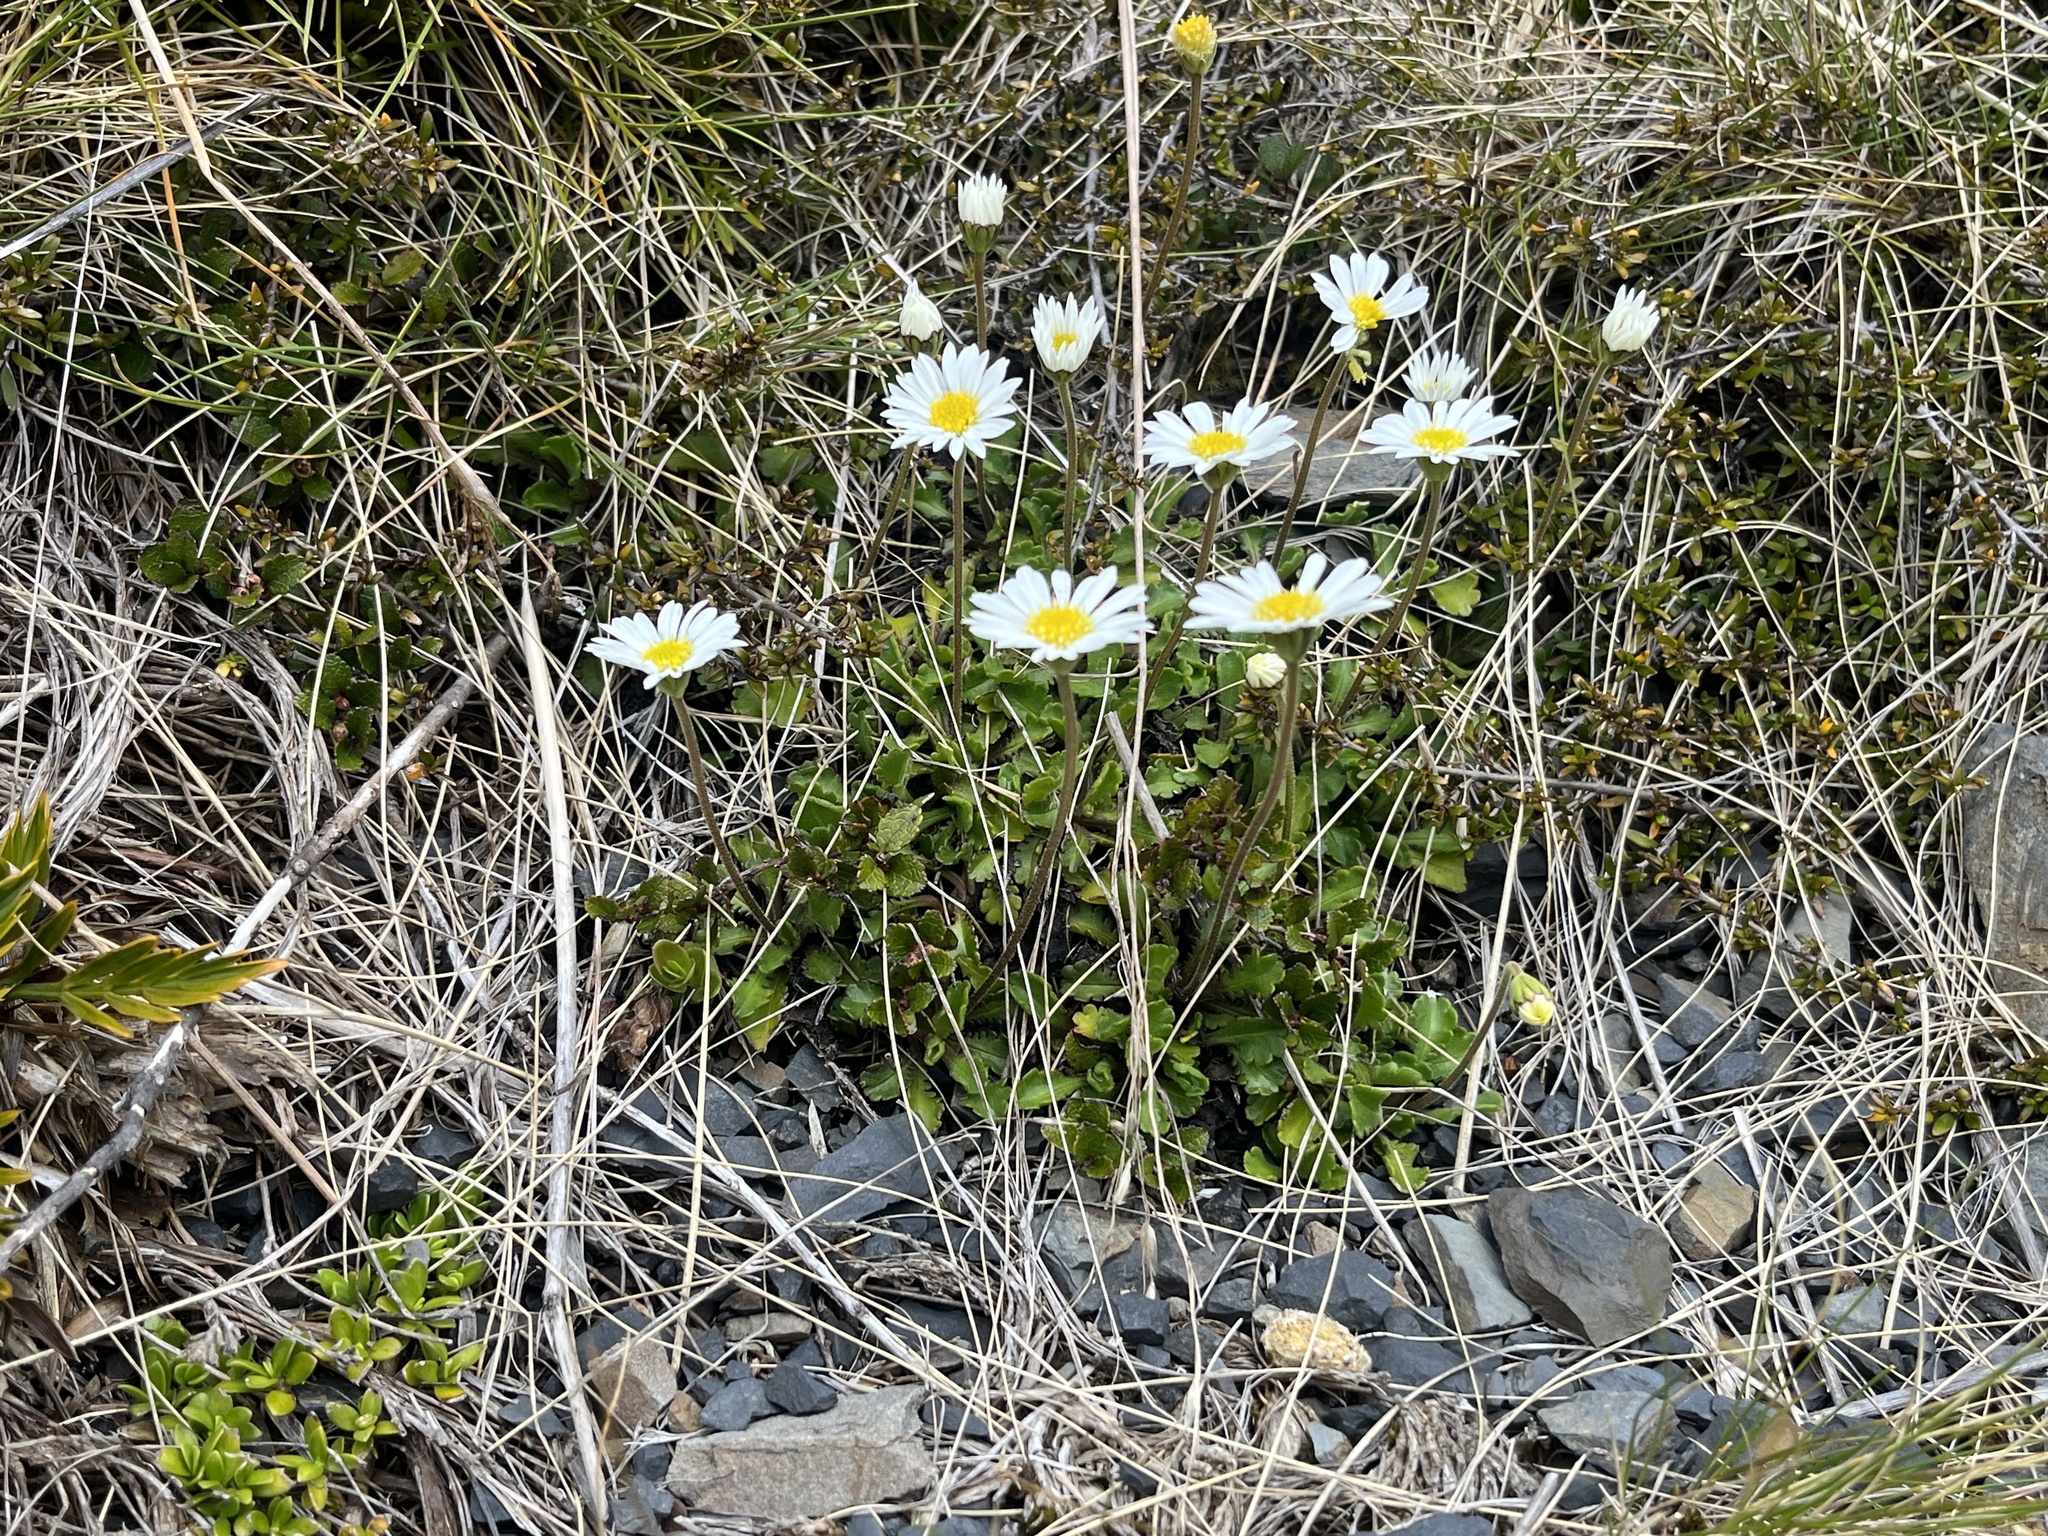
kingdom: Plantae
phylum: Tracheophyta
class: Magnoliopsida
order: Asterales
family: Asteraceae
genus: Brachyscome
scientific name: Brachyscome sinclairii
